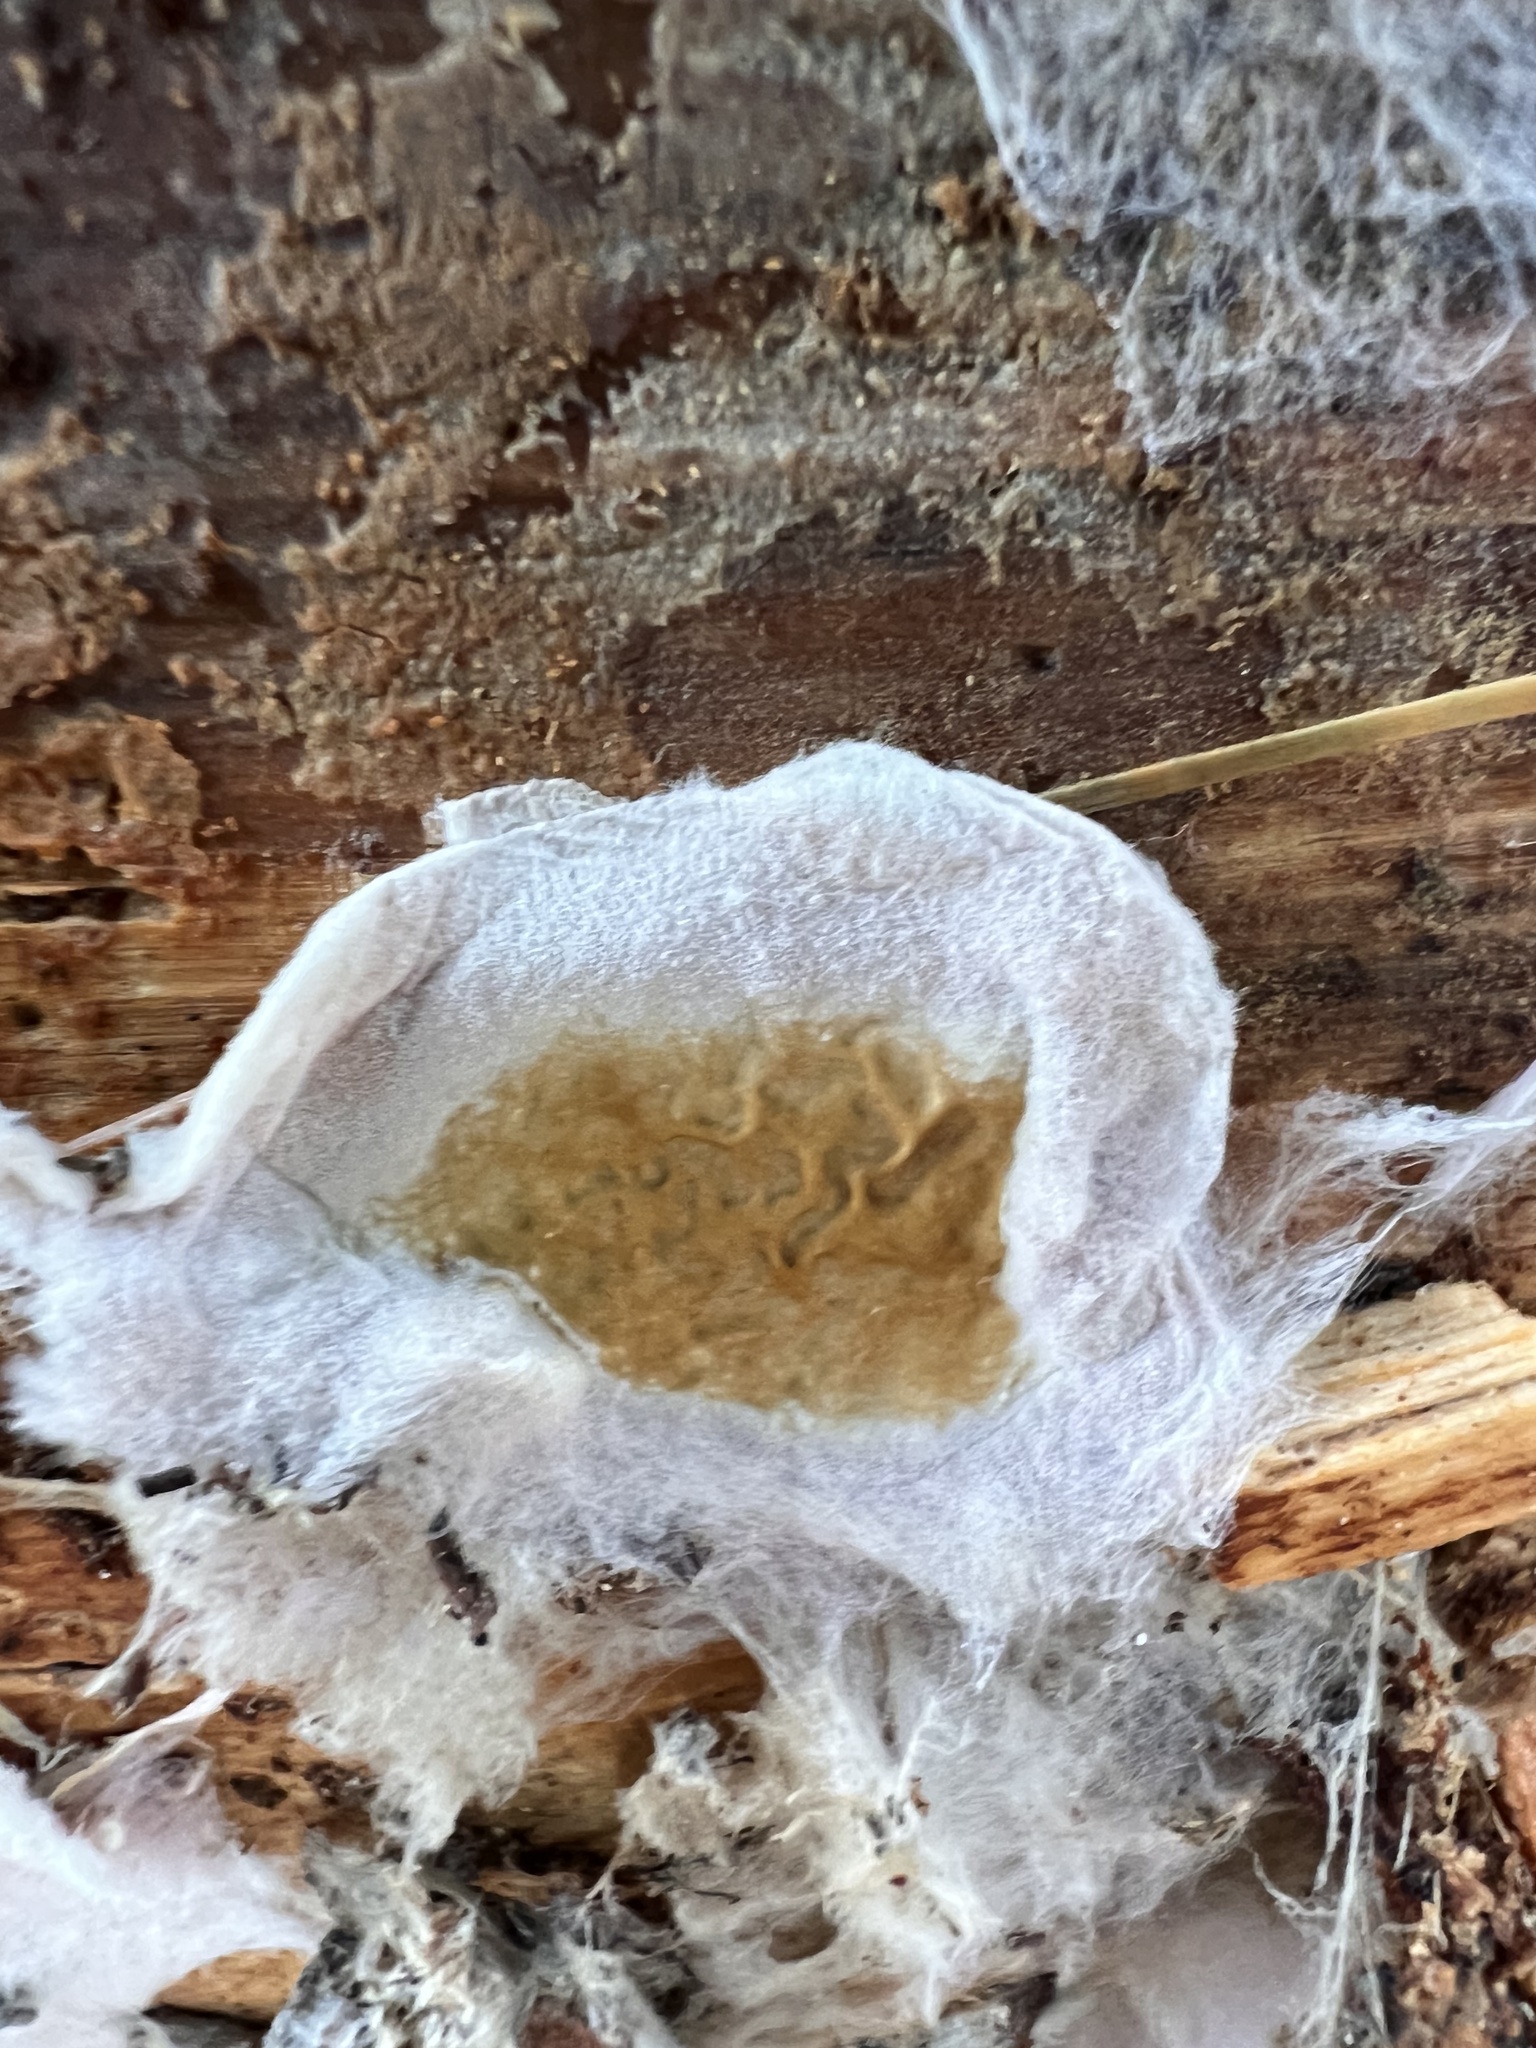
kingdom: Fungi
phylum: Basidiomycota
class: Agaricomycetes
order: Boletales
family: Serpulaceae
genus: Serpula
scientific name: Serpula himantioides
